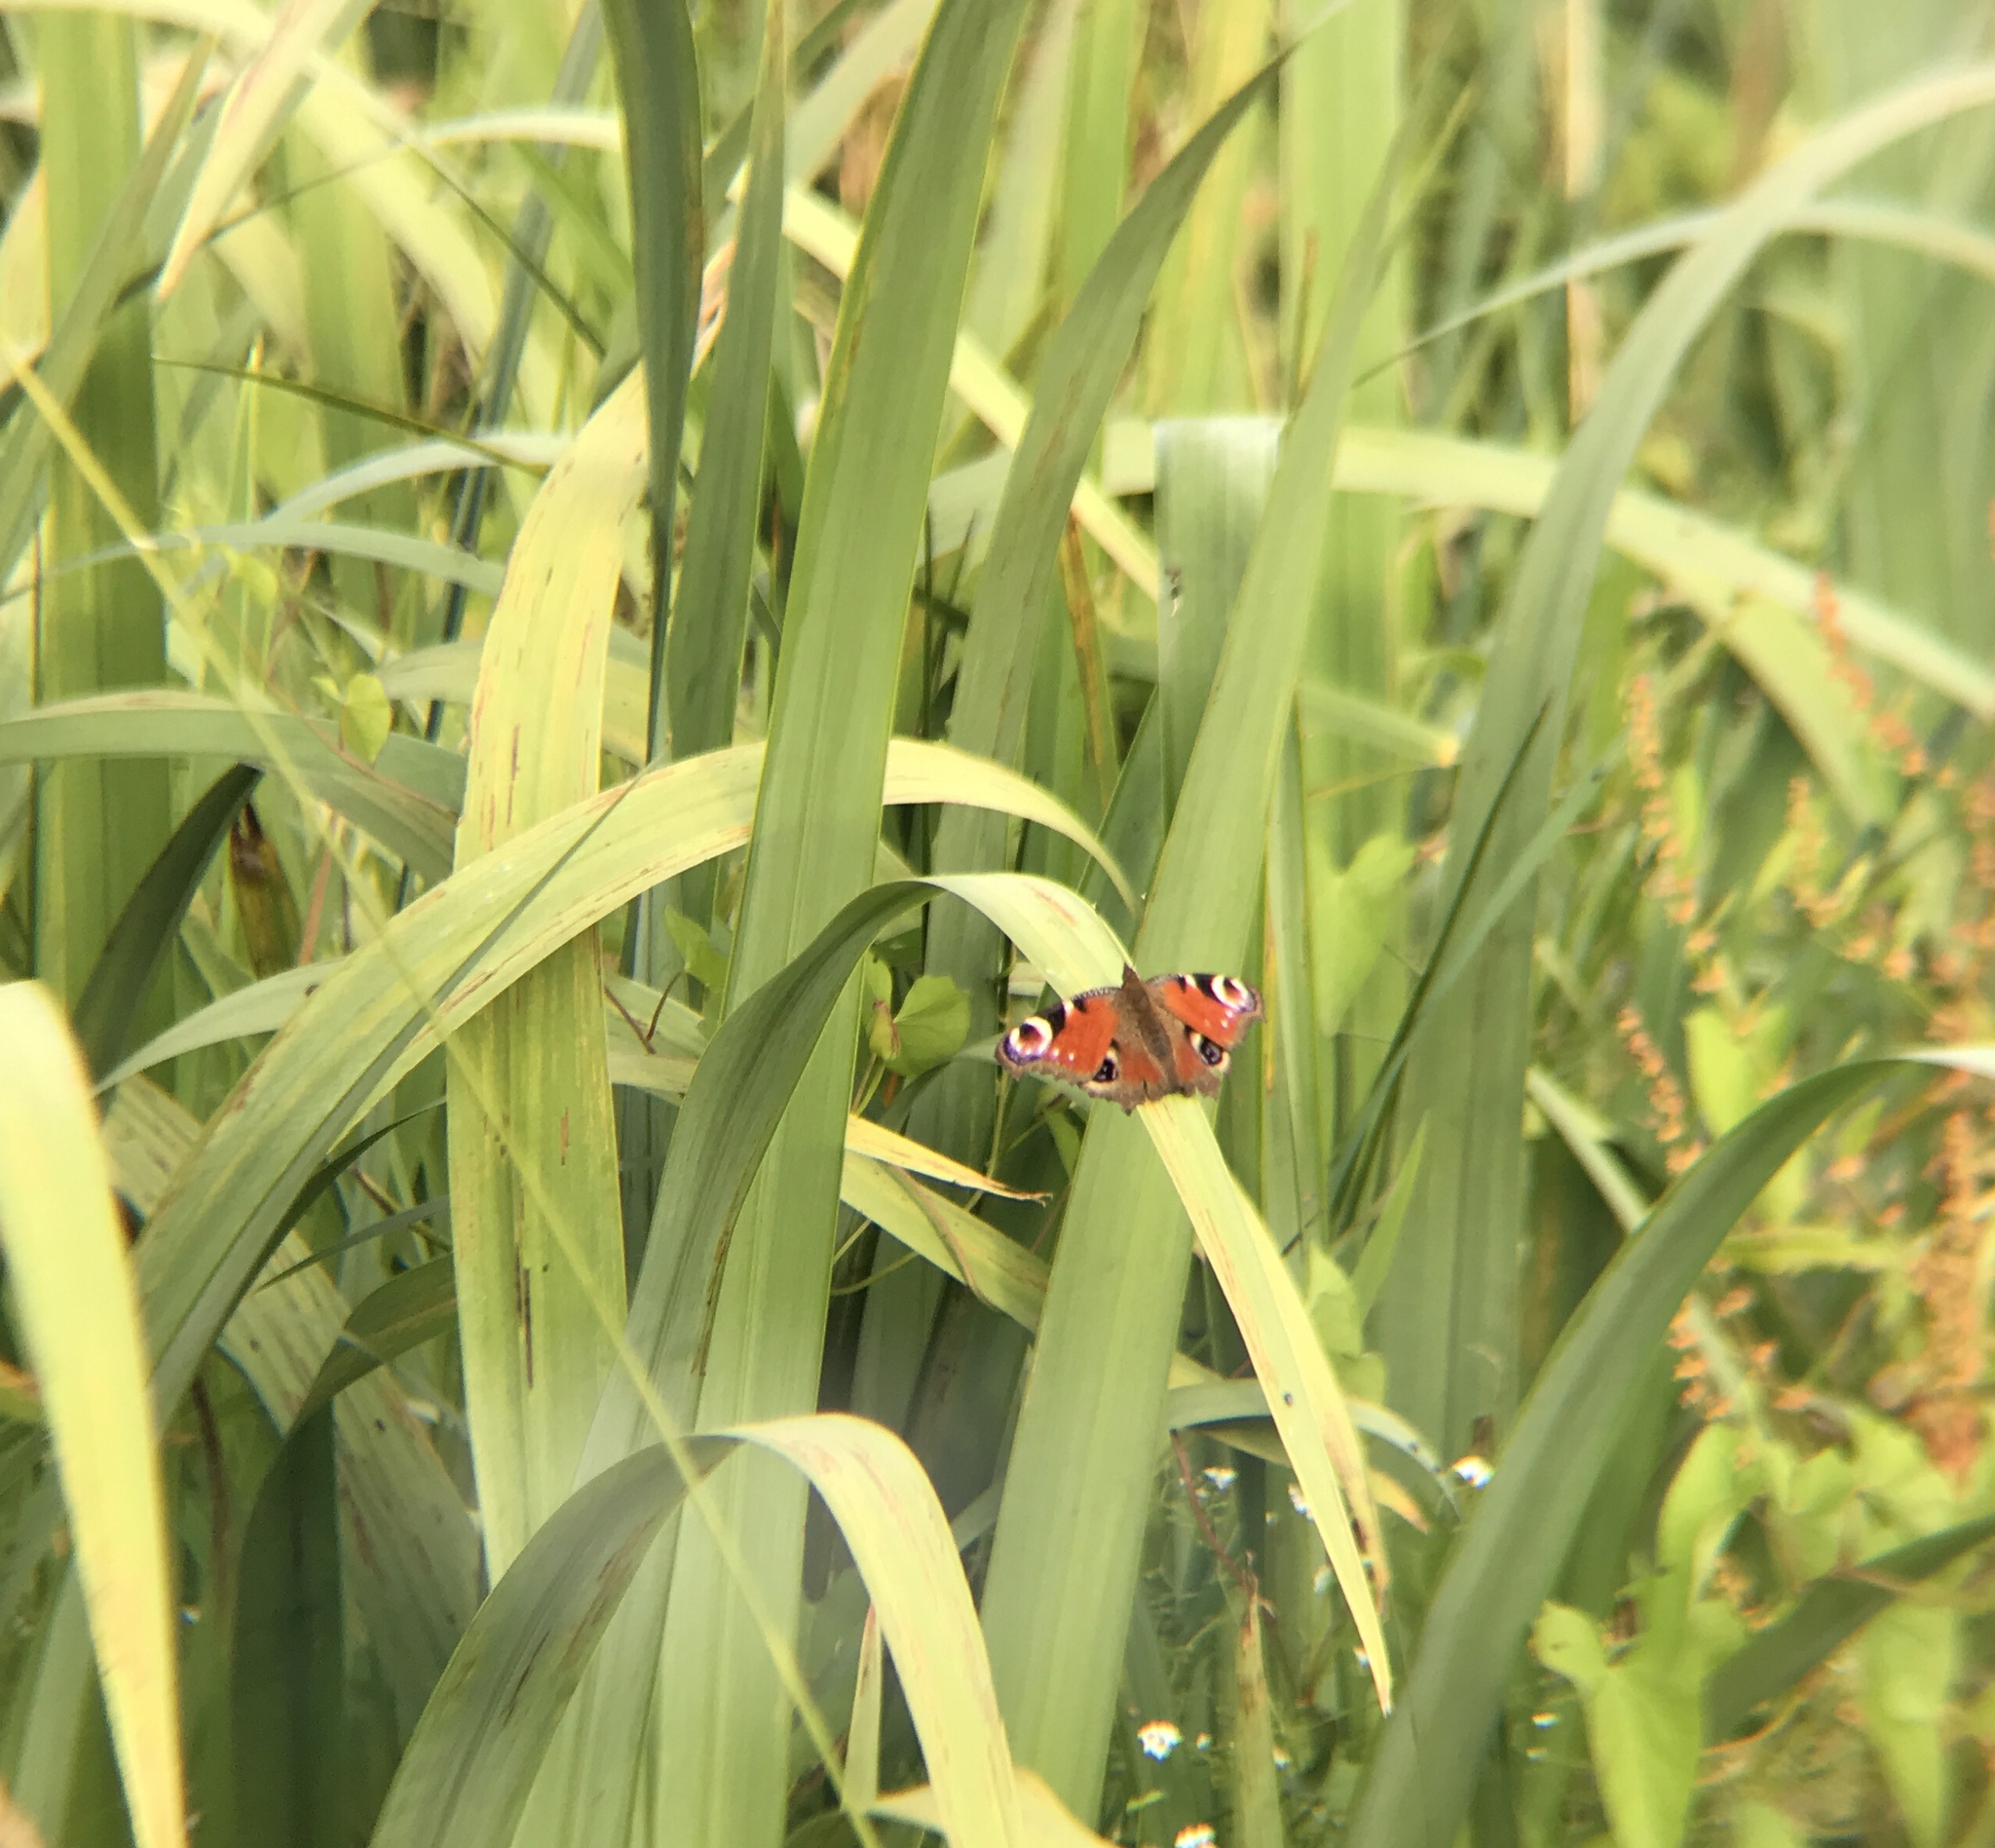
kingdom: Animalia
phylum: Arthropoda
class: Insecta
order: Lepidoptera
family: Nymphalidae
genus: Aglais
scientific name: Aglais io
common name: Peacock
